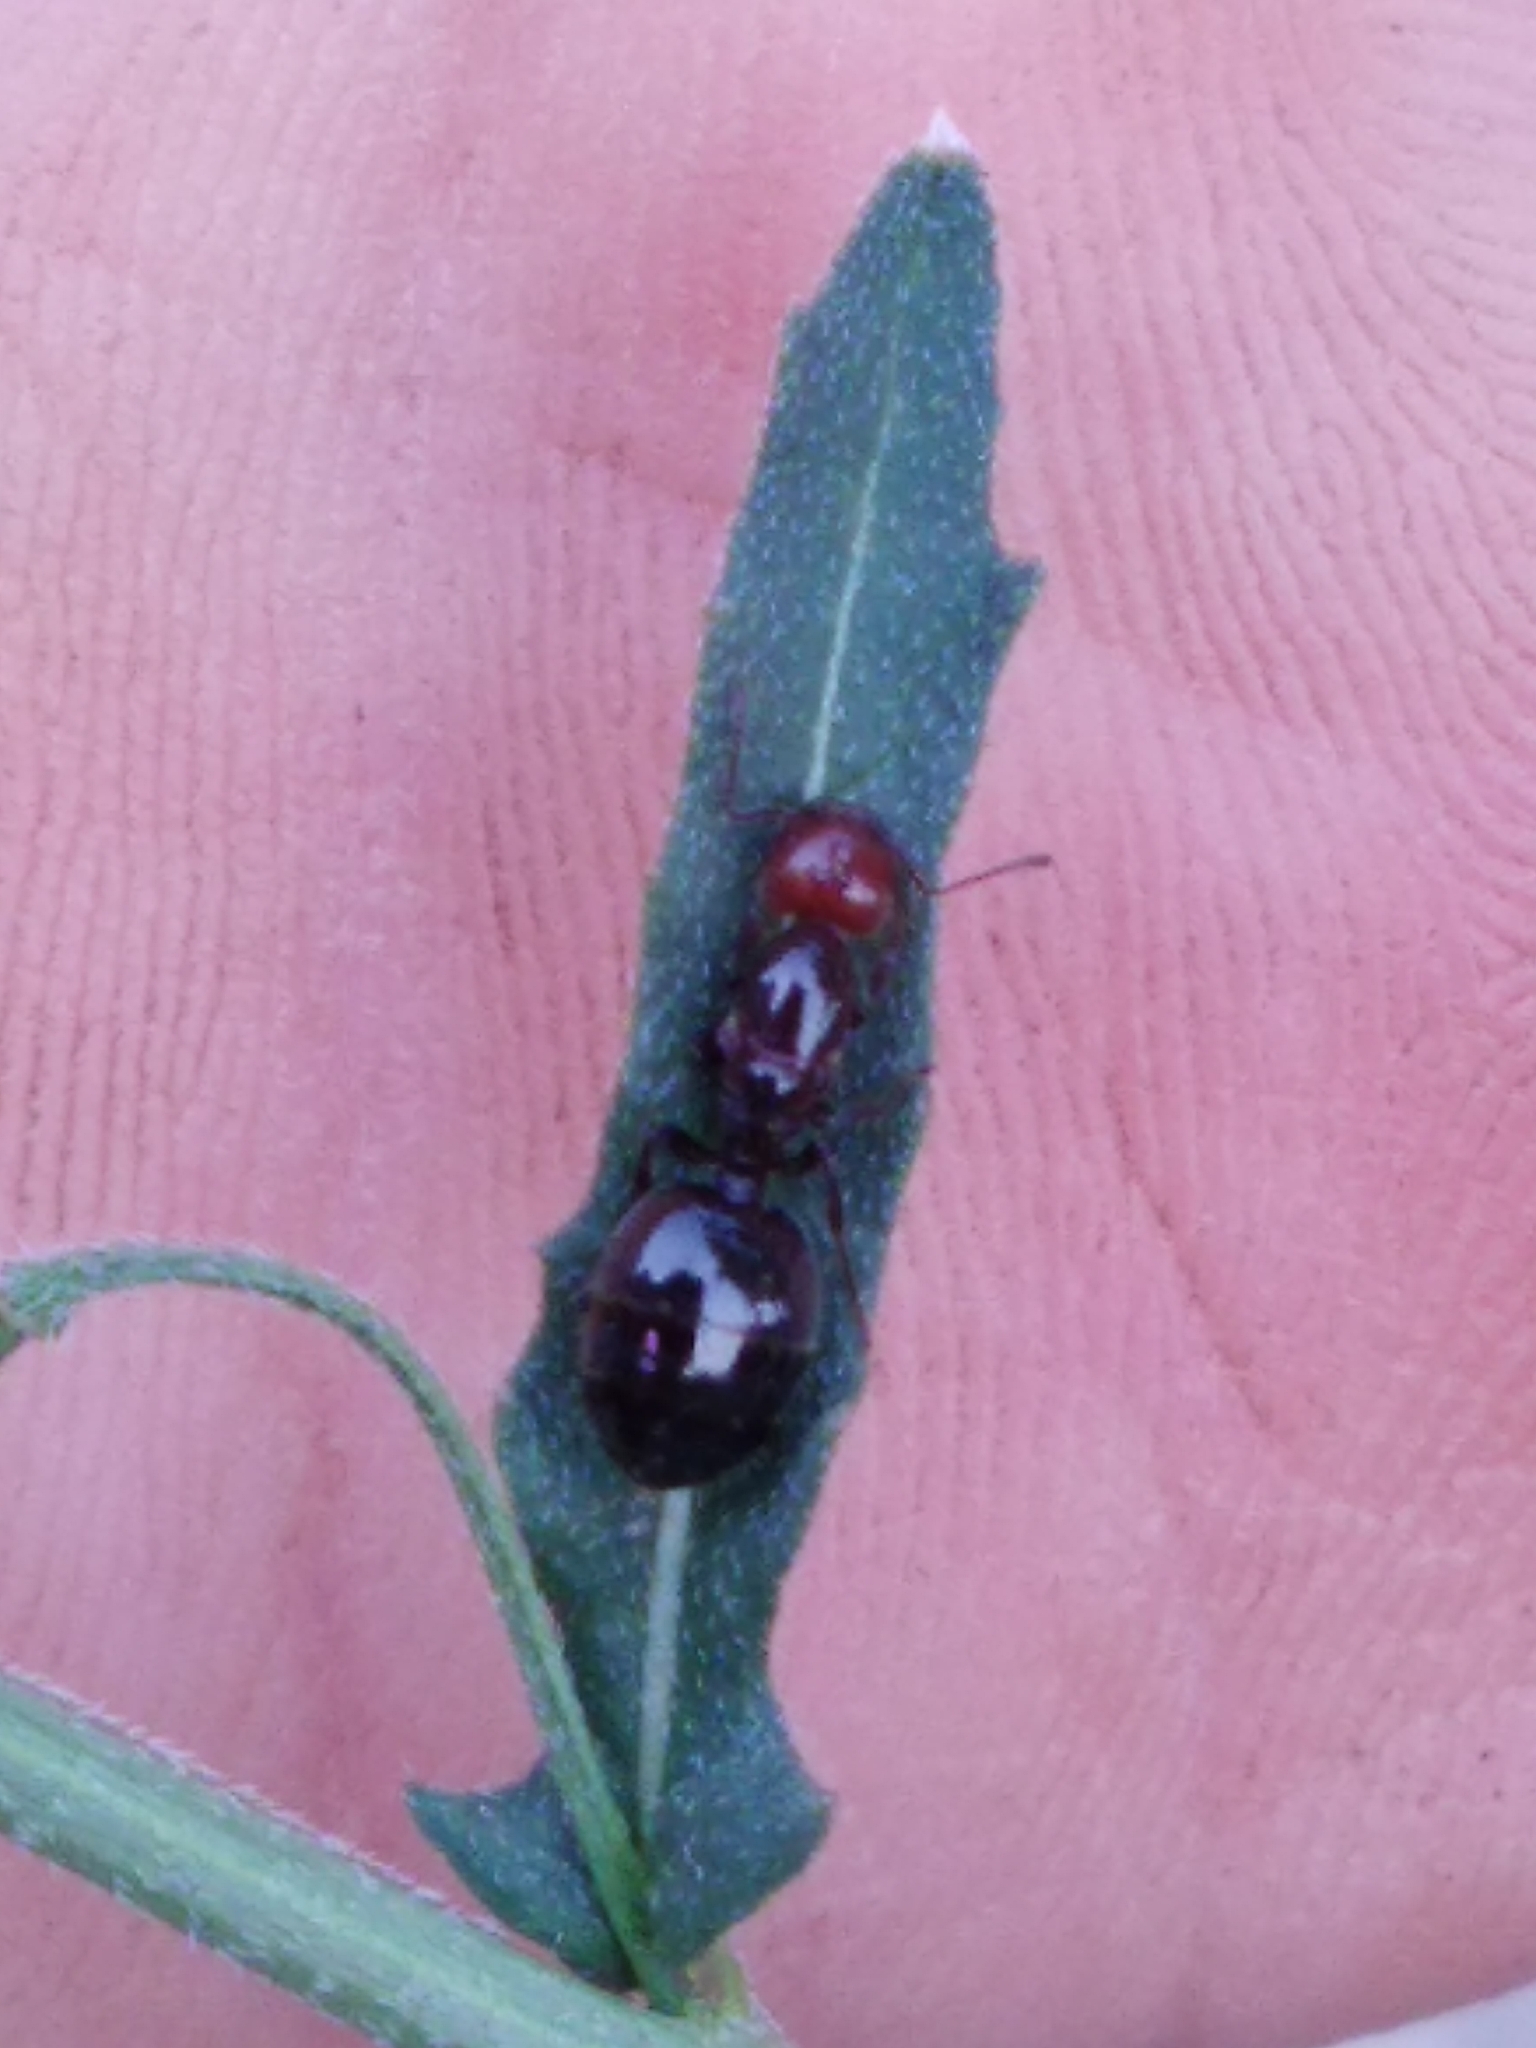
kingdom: Animalia
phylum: Arthropoda
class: Insecta
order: Hymenoptera
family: Formicidae
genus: Crematogaster
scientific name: Crematogaster scutellaris
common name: Fourmi du liège
